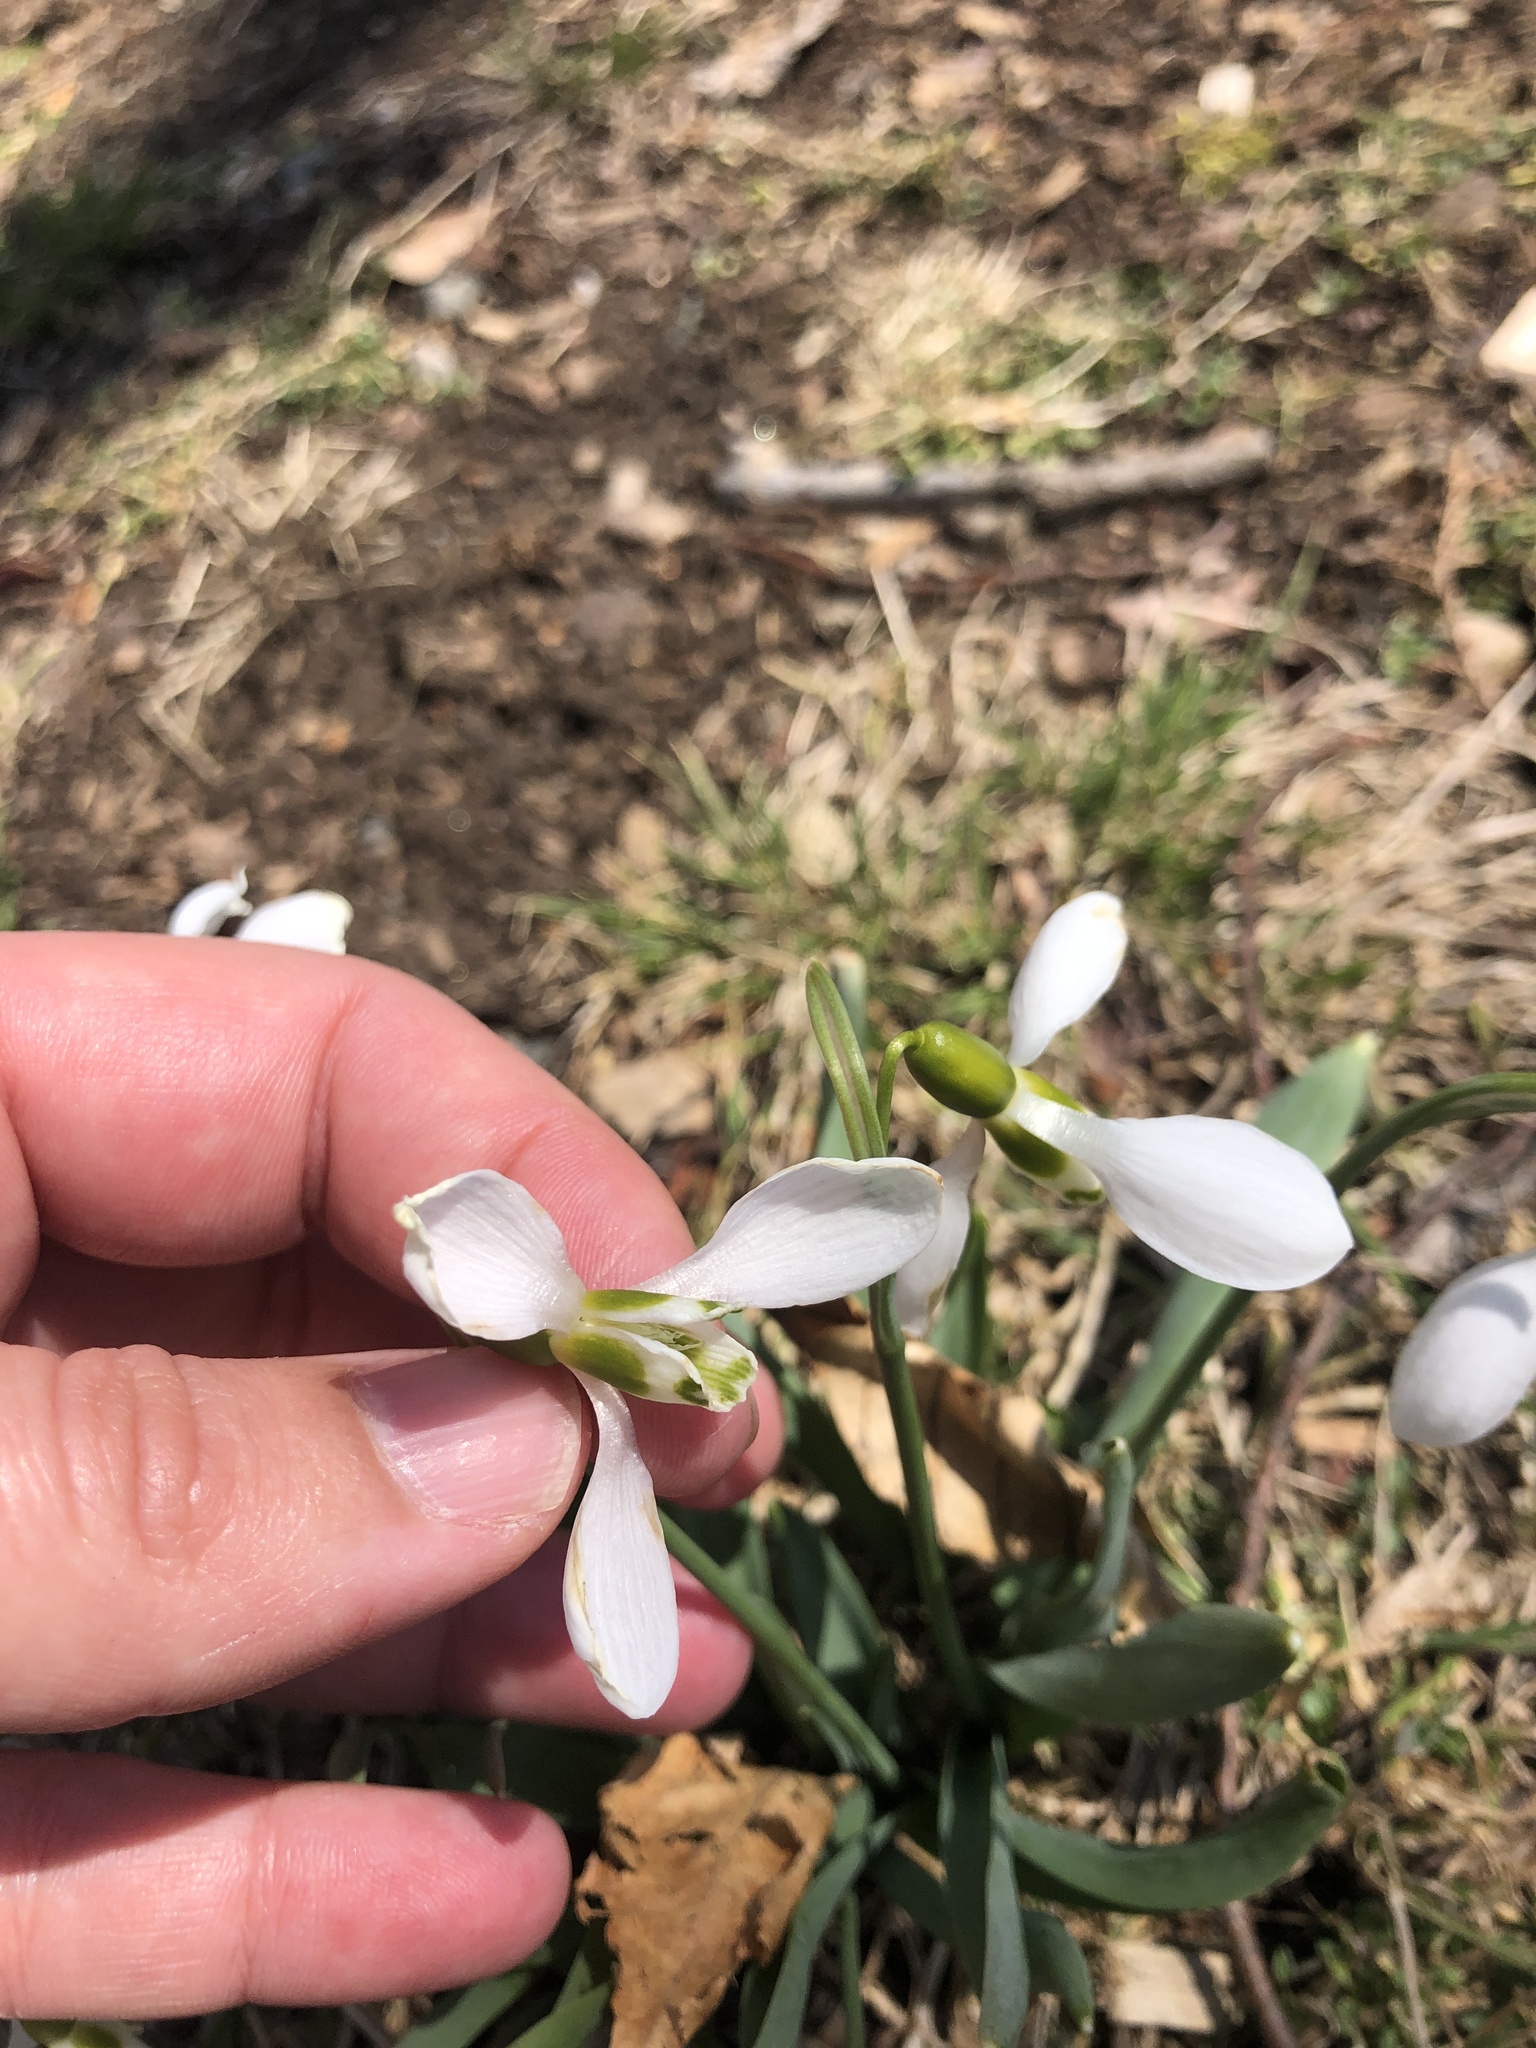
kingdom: Plantae
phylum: Tracheophyta
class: Liliopsida
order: Asparagales
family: Amaryllidaceae
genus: Galanthus
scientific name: Galanthus elwesii
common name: Greater snowdrop
